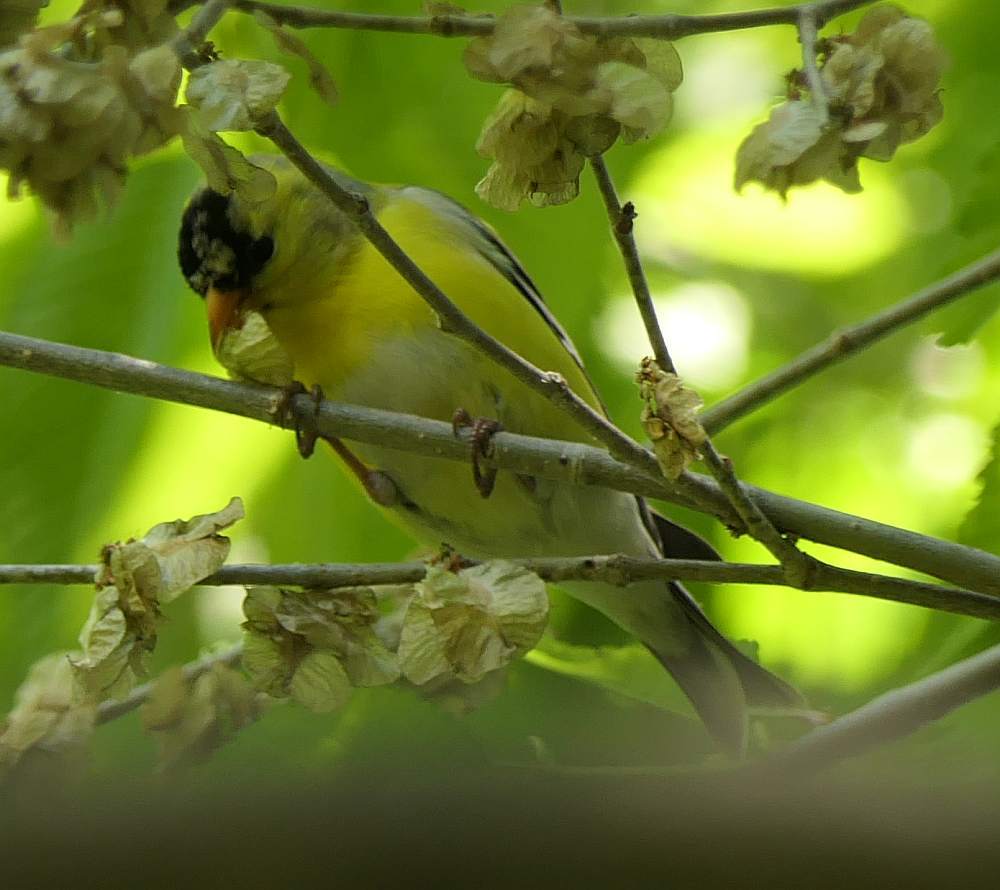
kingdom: Animalia
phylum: Chordata
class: Aves
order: Passeriformes
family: Fringillidae
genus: Spinus
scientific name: Spinus tristis
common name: American goldfinch
